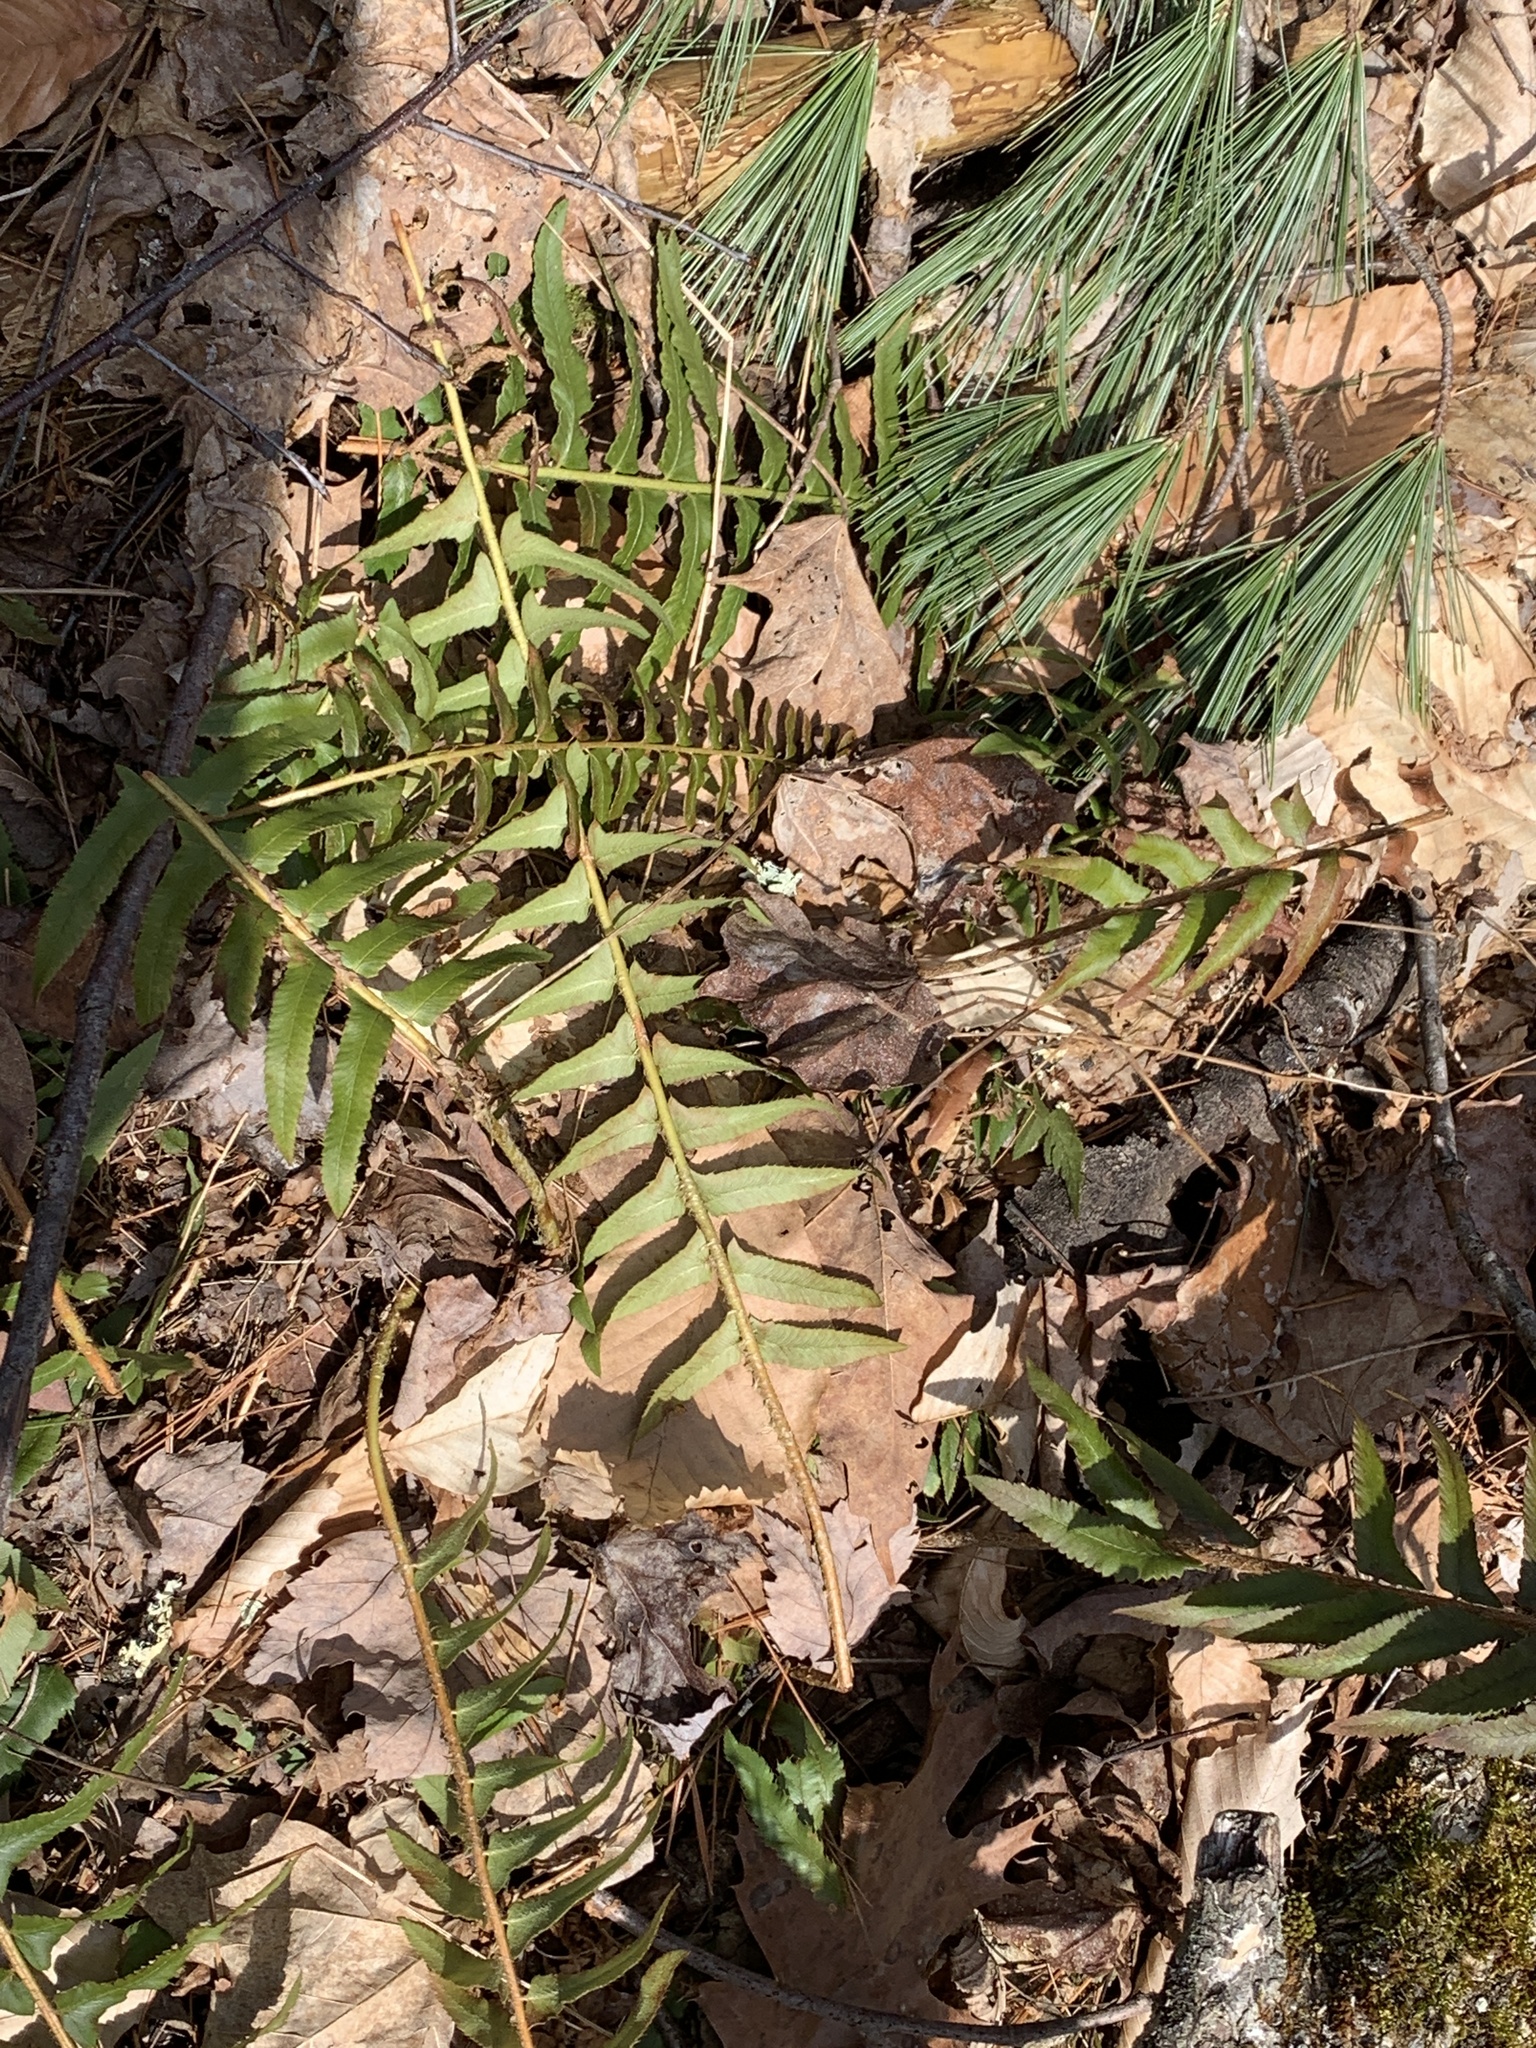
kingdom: Plantae
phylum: Tracheophyta
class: Polypodiopsida
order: Polypodiales
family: Dryopteridaceae
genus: Polystichum
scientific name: Polystichum acrostichoides
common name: Christmas fern
